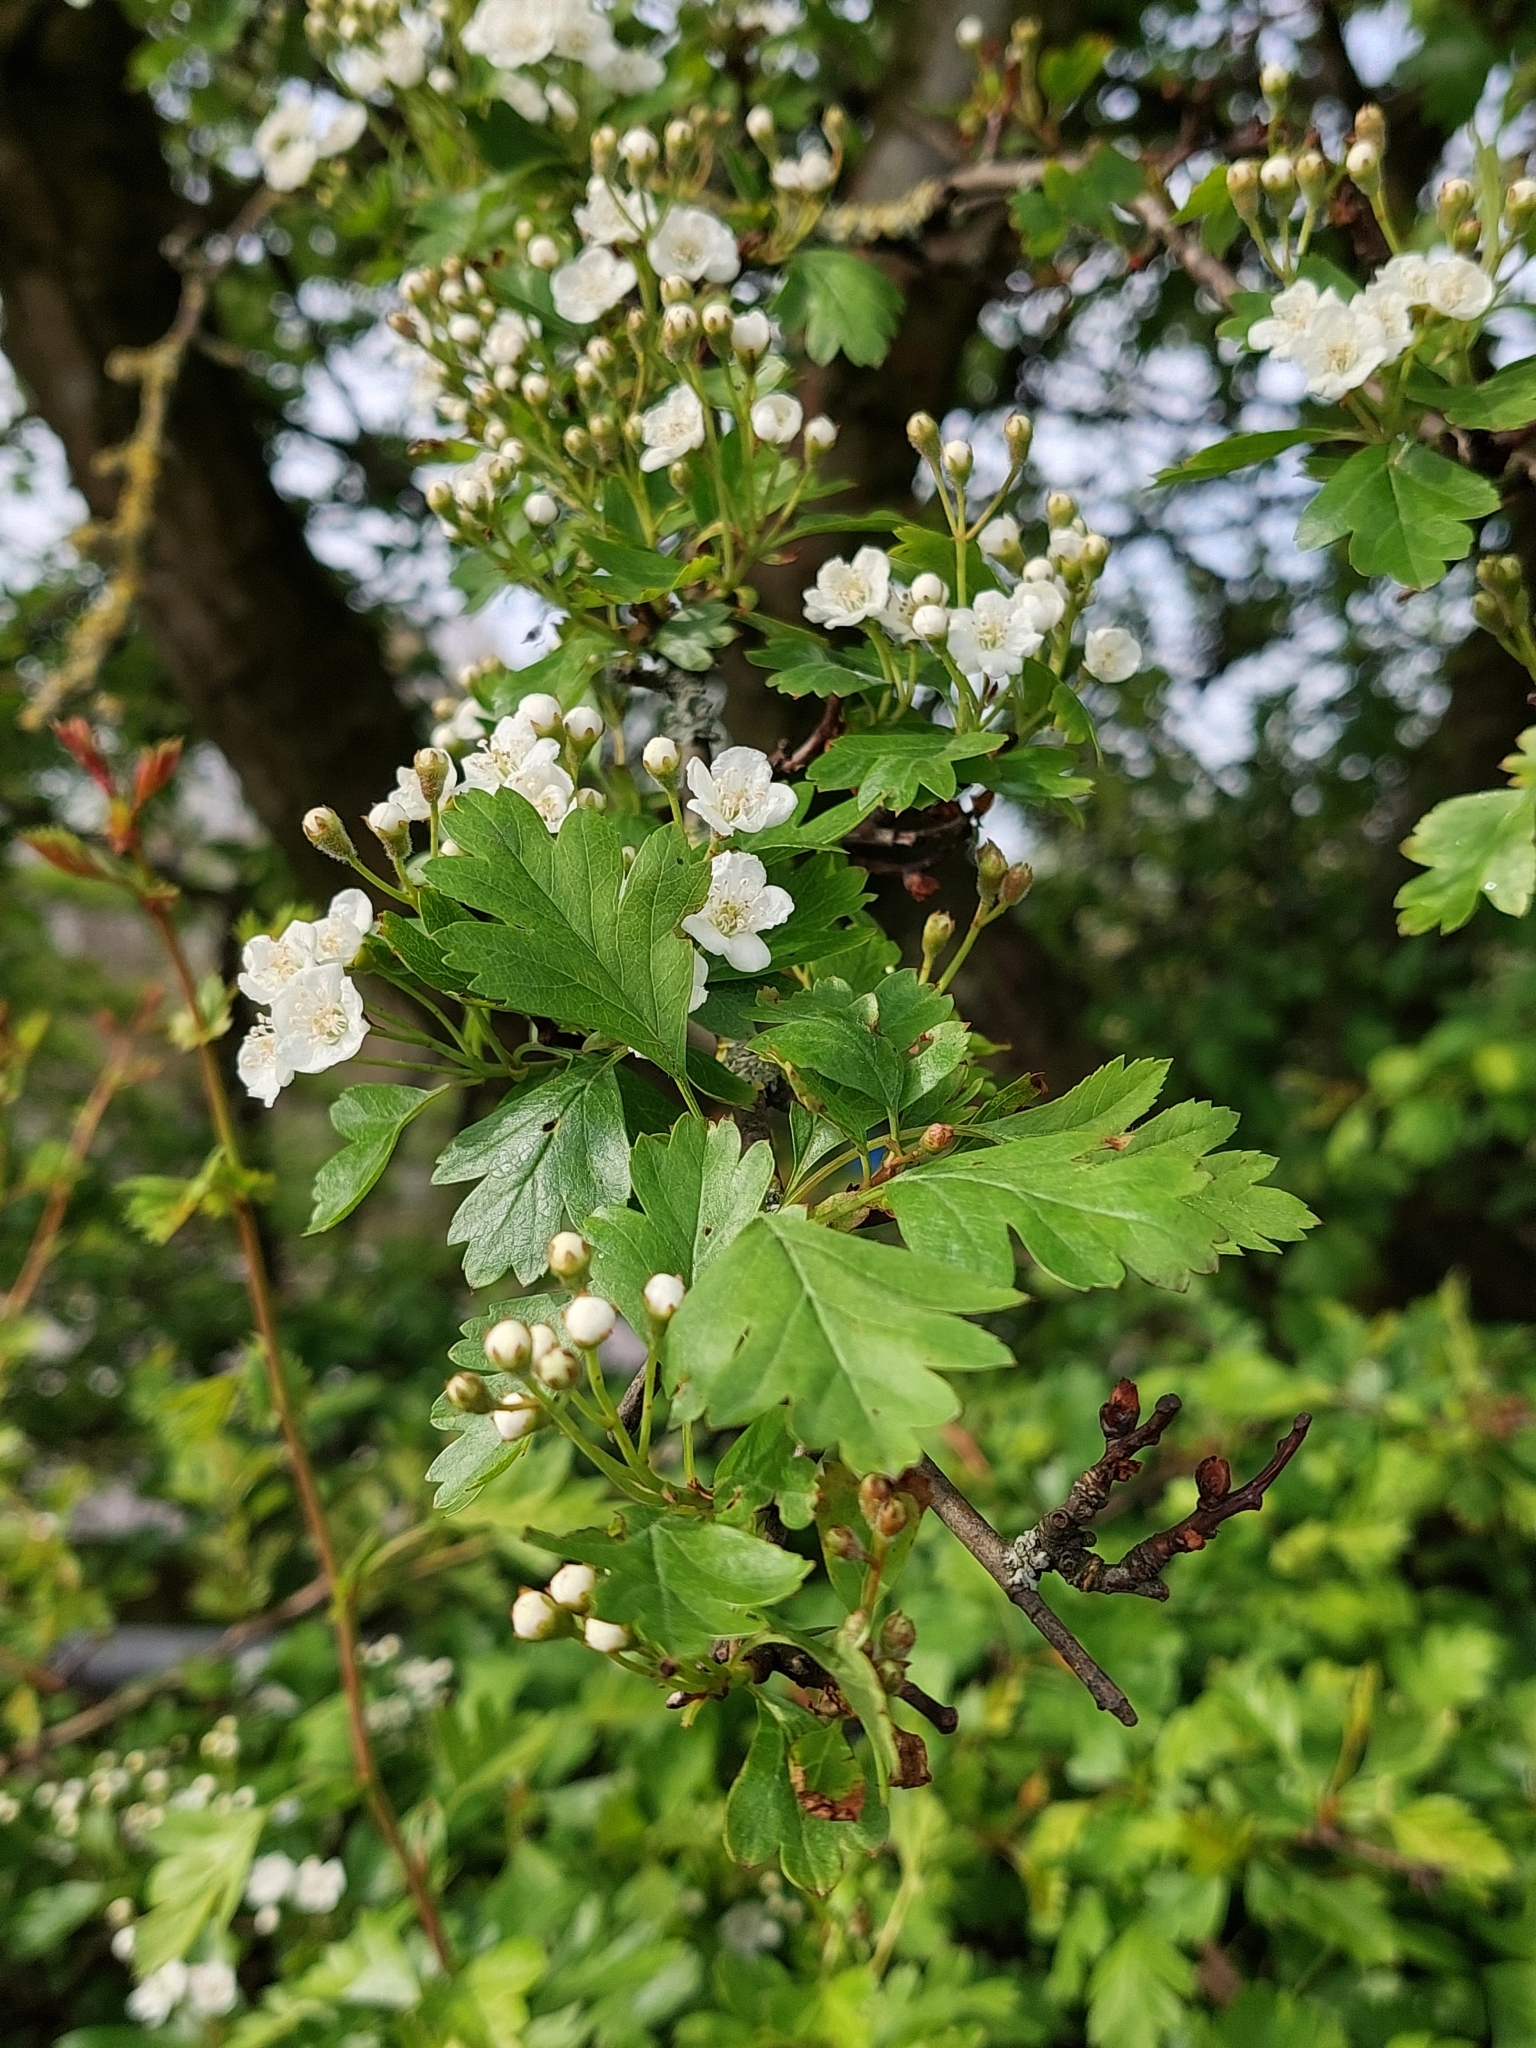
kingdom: Plantae
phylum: Tracheophyta
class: Magnoliopsida
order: Rosales
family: Rosaceae
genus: Crataegus
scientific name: Crataegus monogyna
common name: Hawthorn
